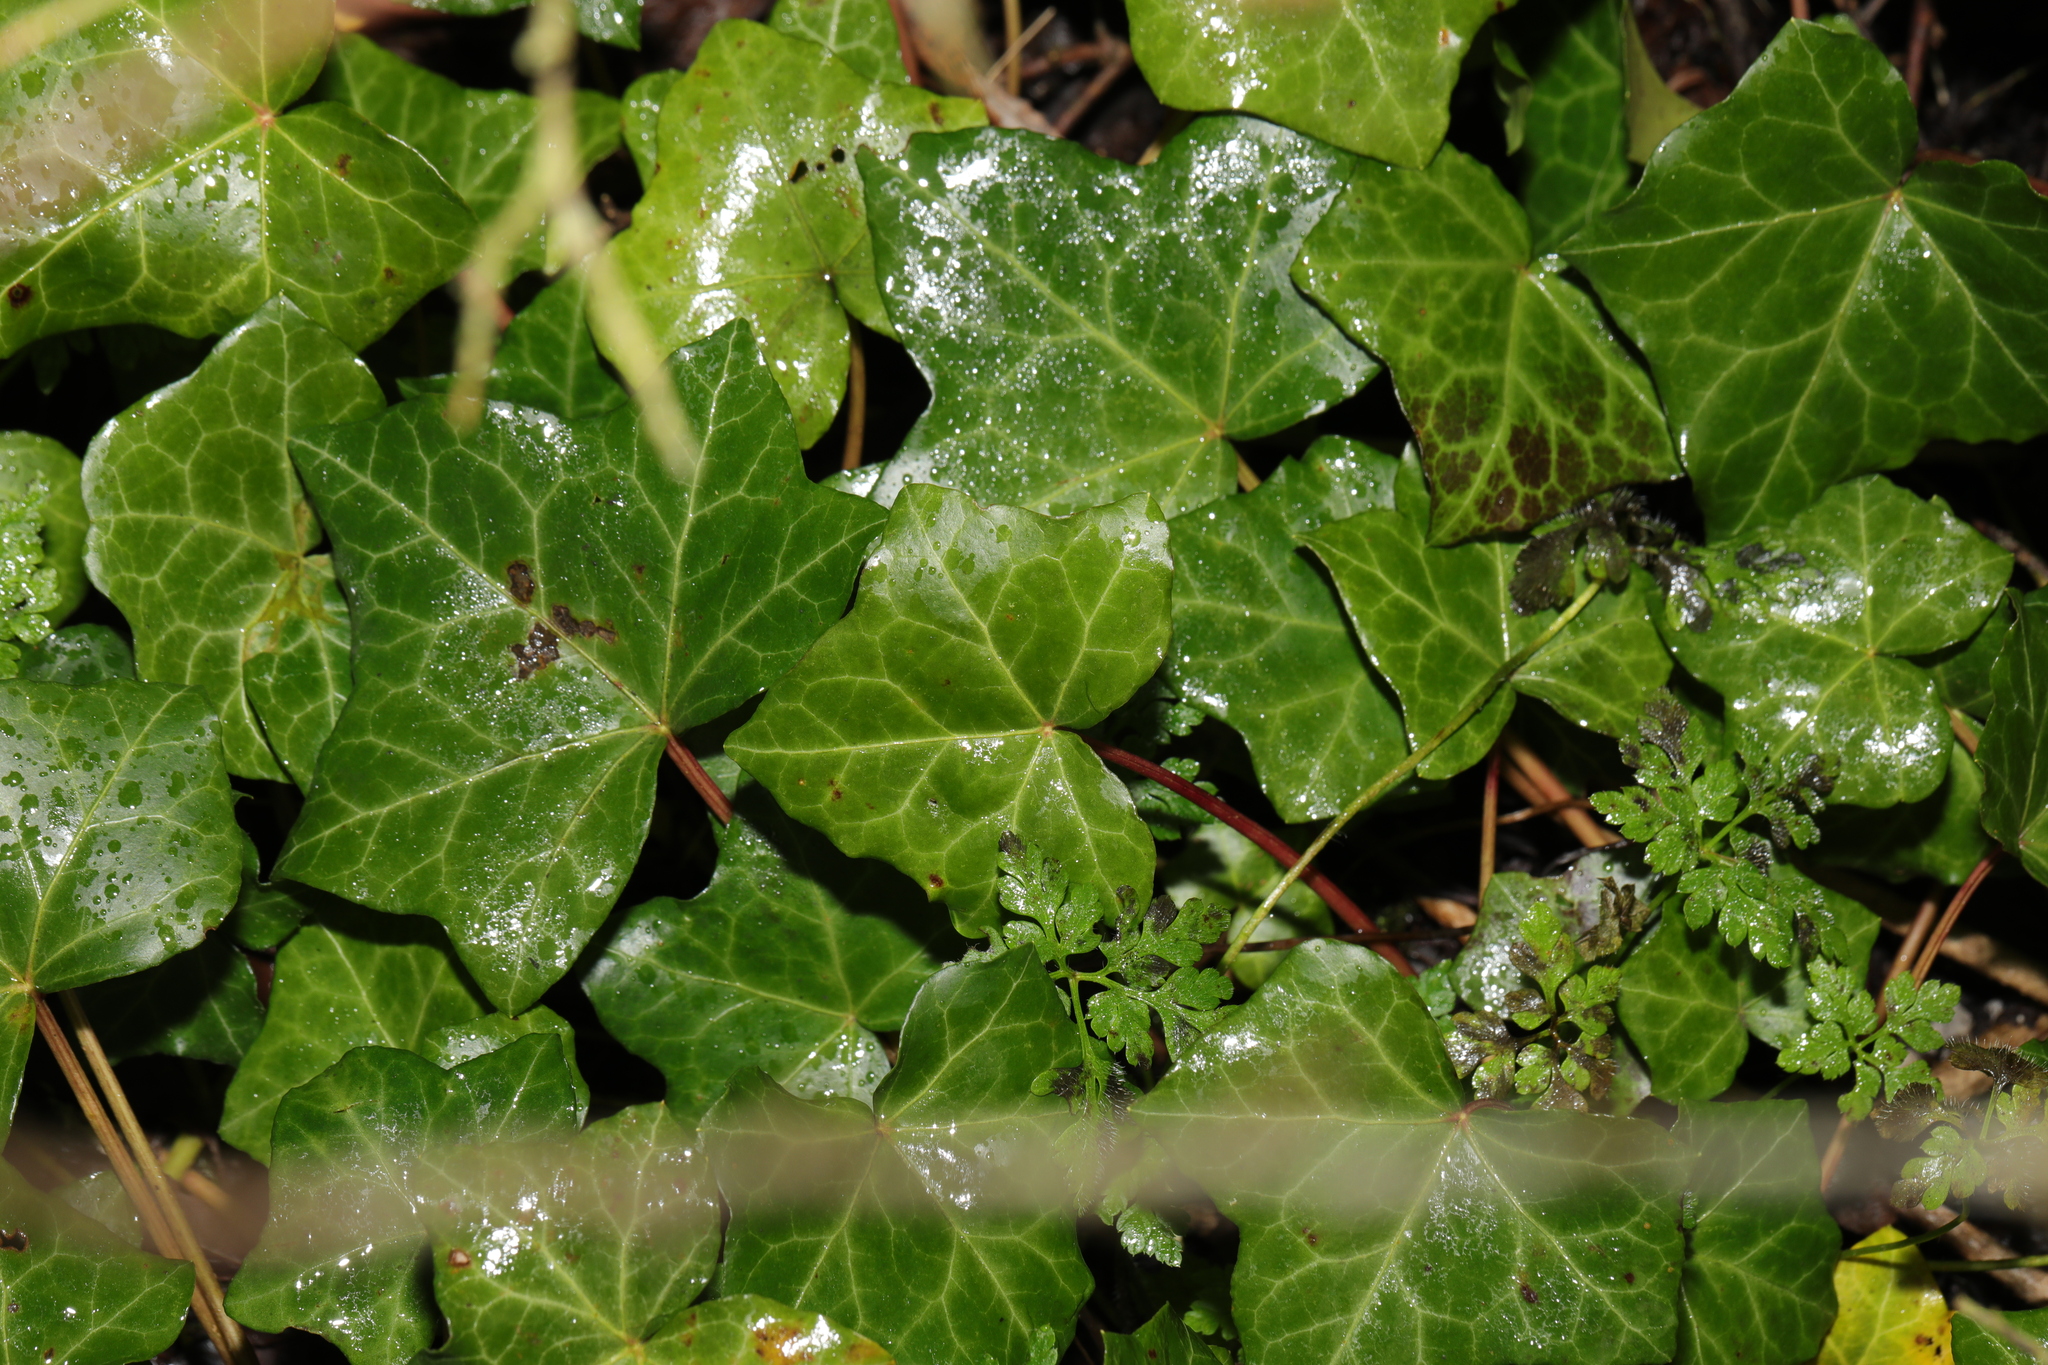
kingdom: Plantae
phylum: Tracheophyta
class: Magnoliopsida
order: Apiales
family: Araliaceae
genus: Hedera
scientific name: Hedera helix
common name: Ivy
